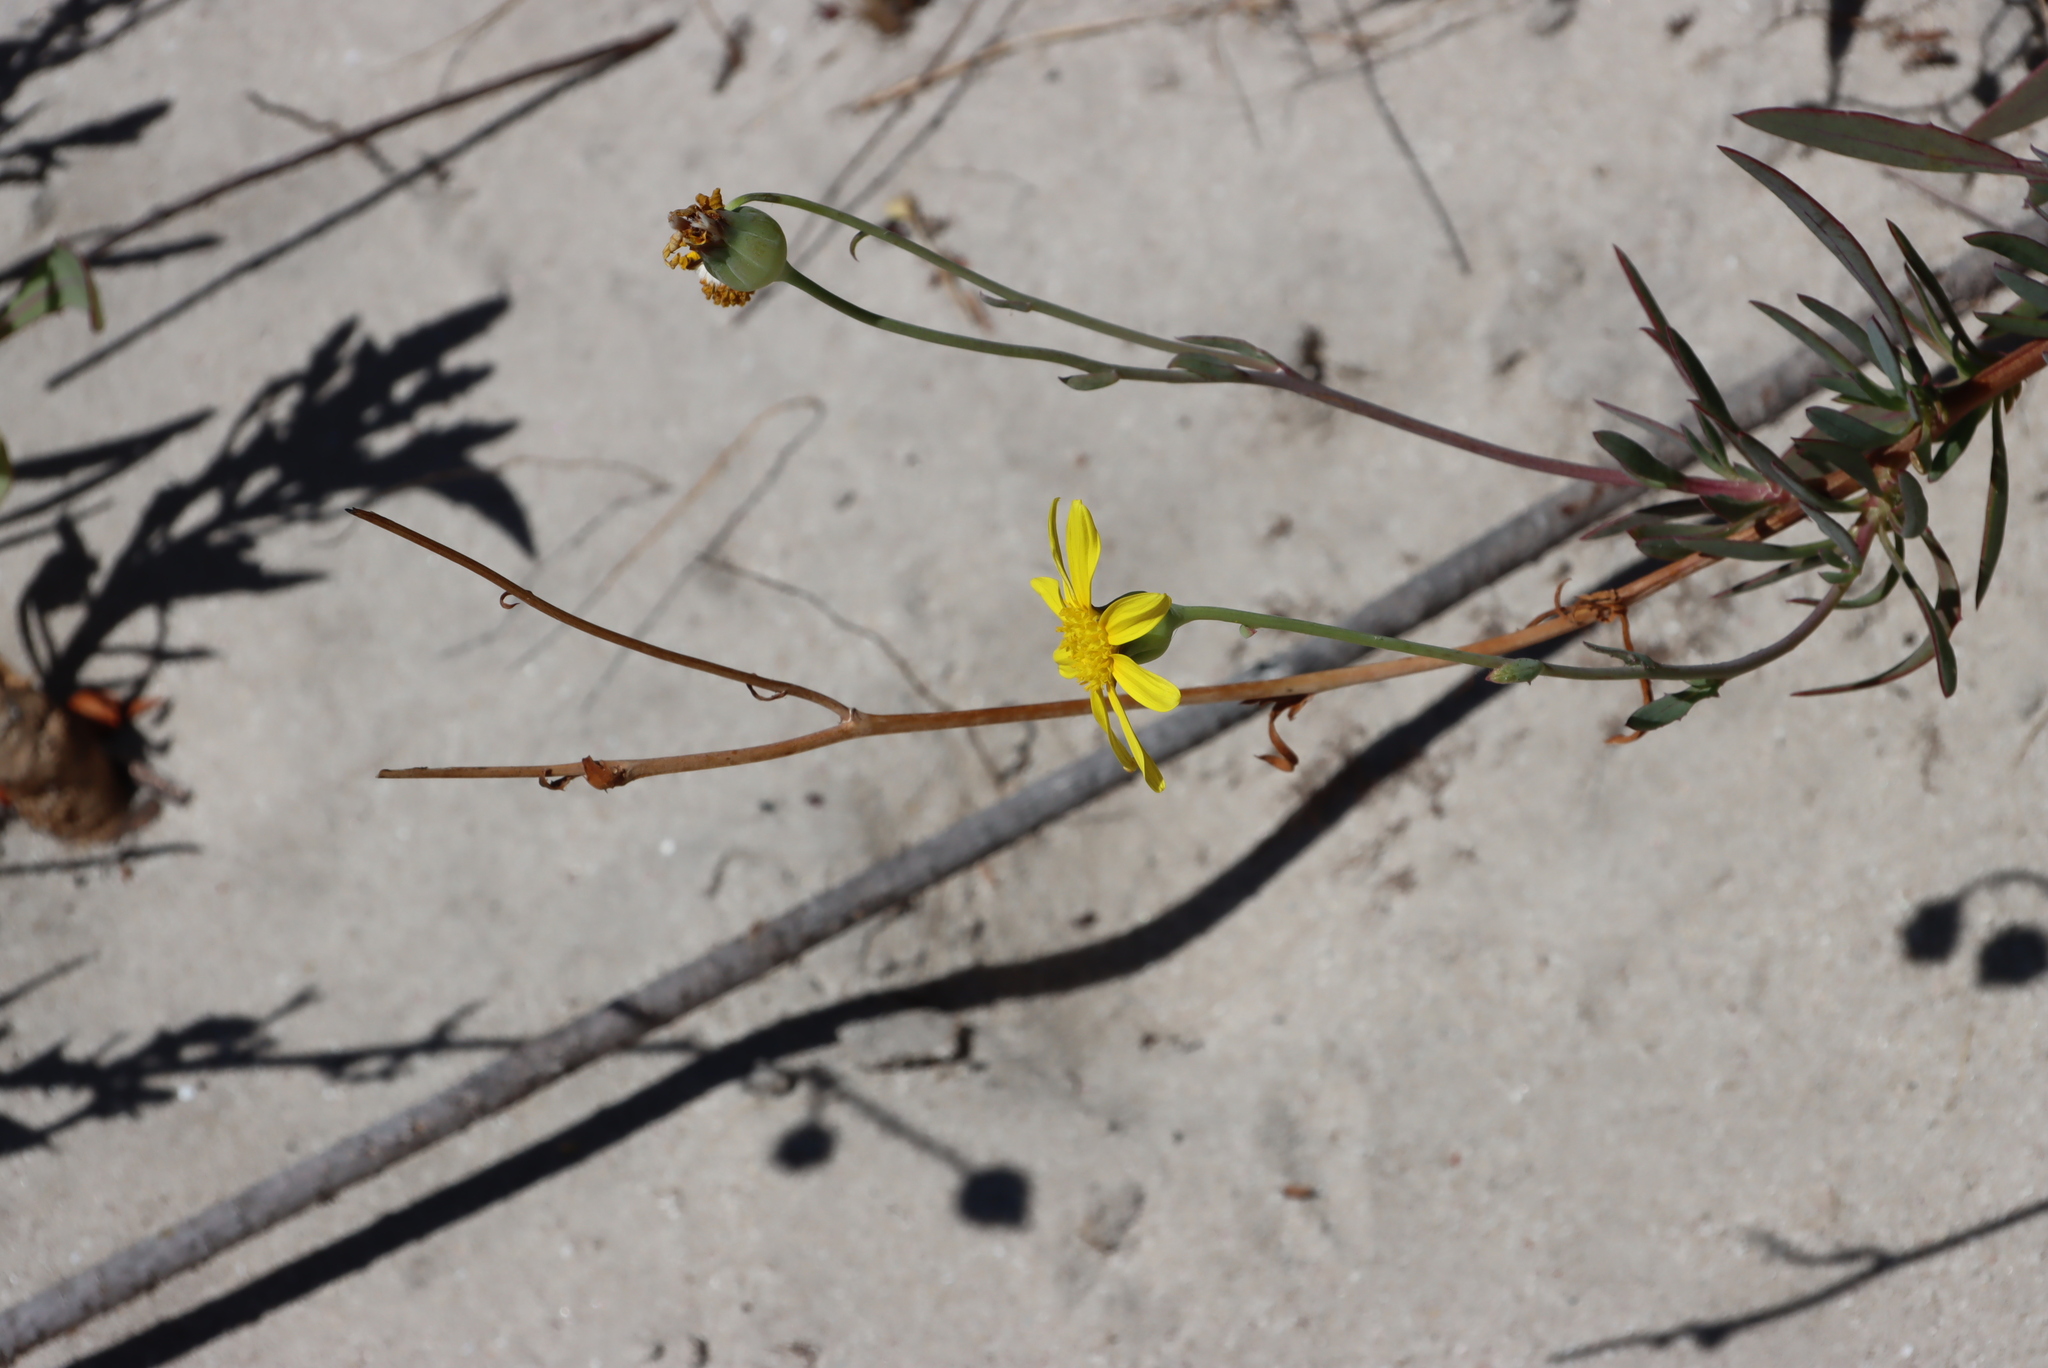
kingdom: Plantae
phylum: Tracheophyta
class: Magnoliopsida
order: Asterales
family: Asteraceae
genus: Othonna
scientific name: Othonna coronopifolia
